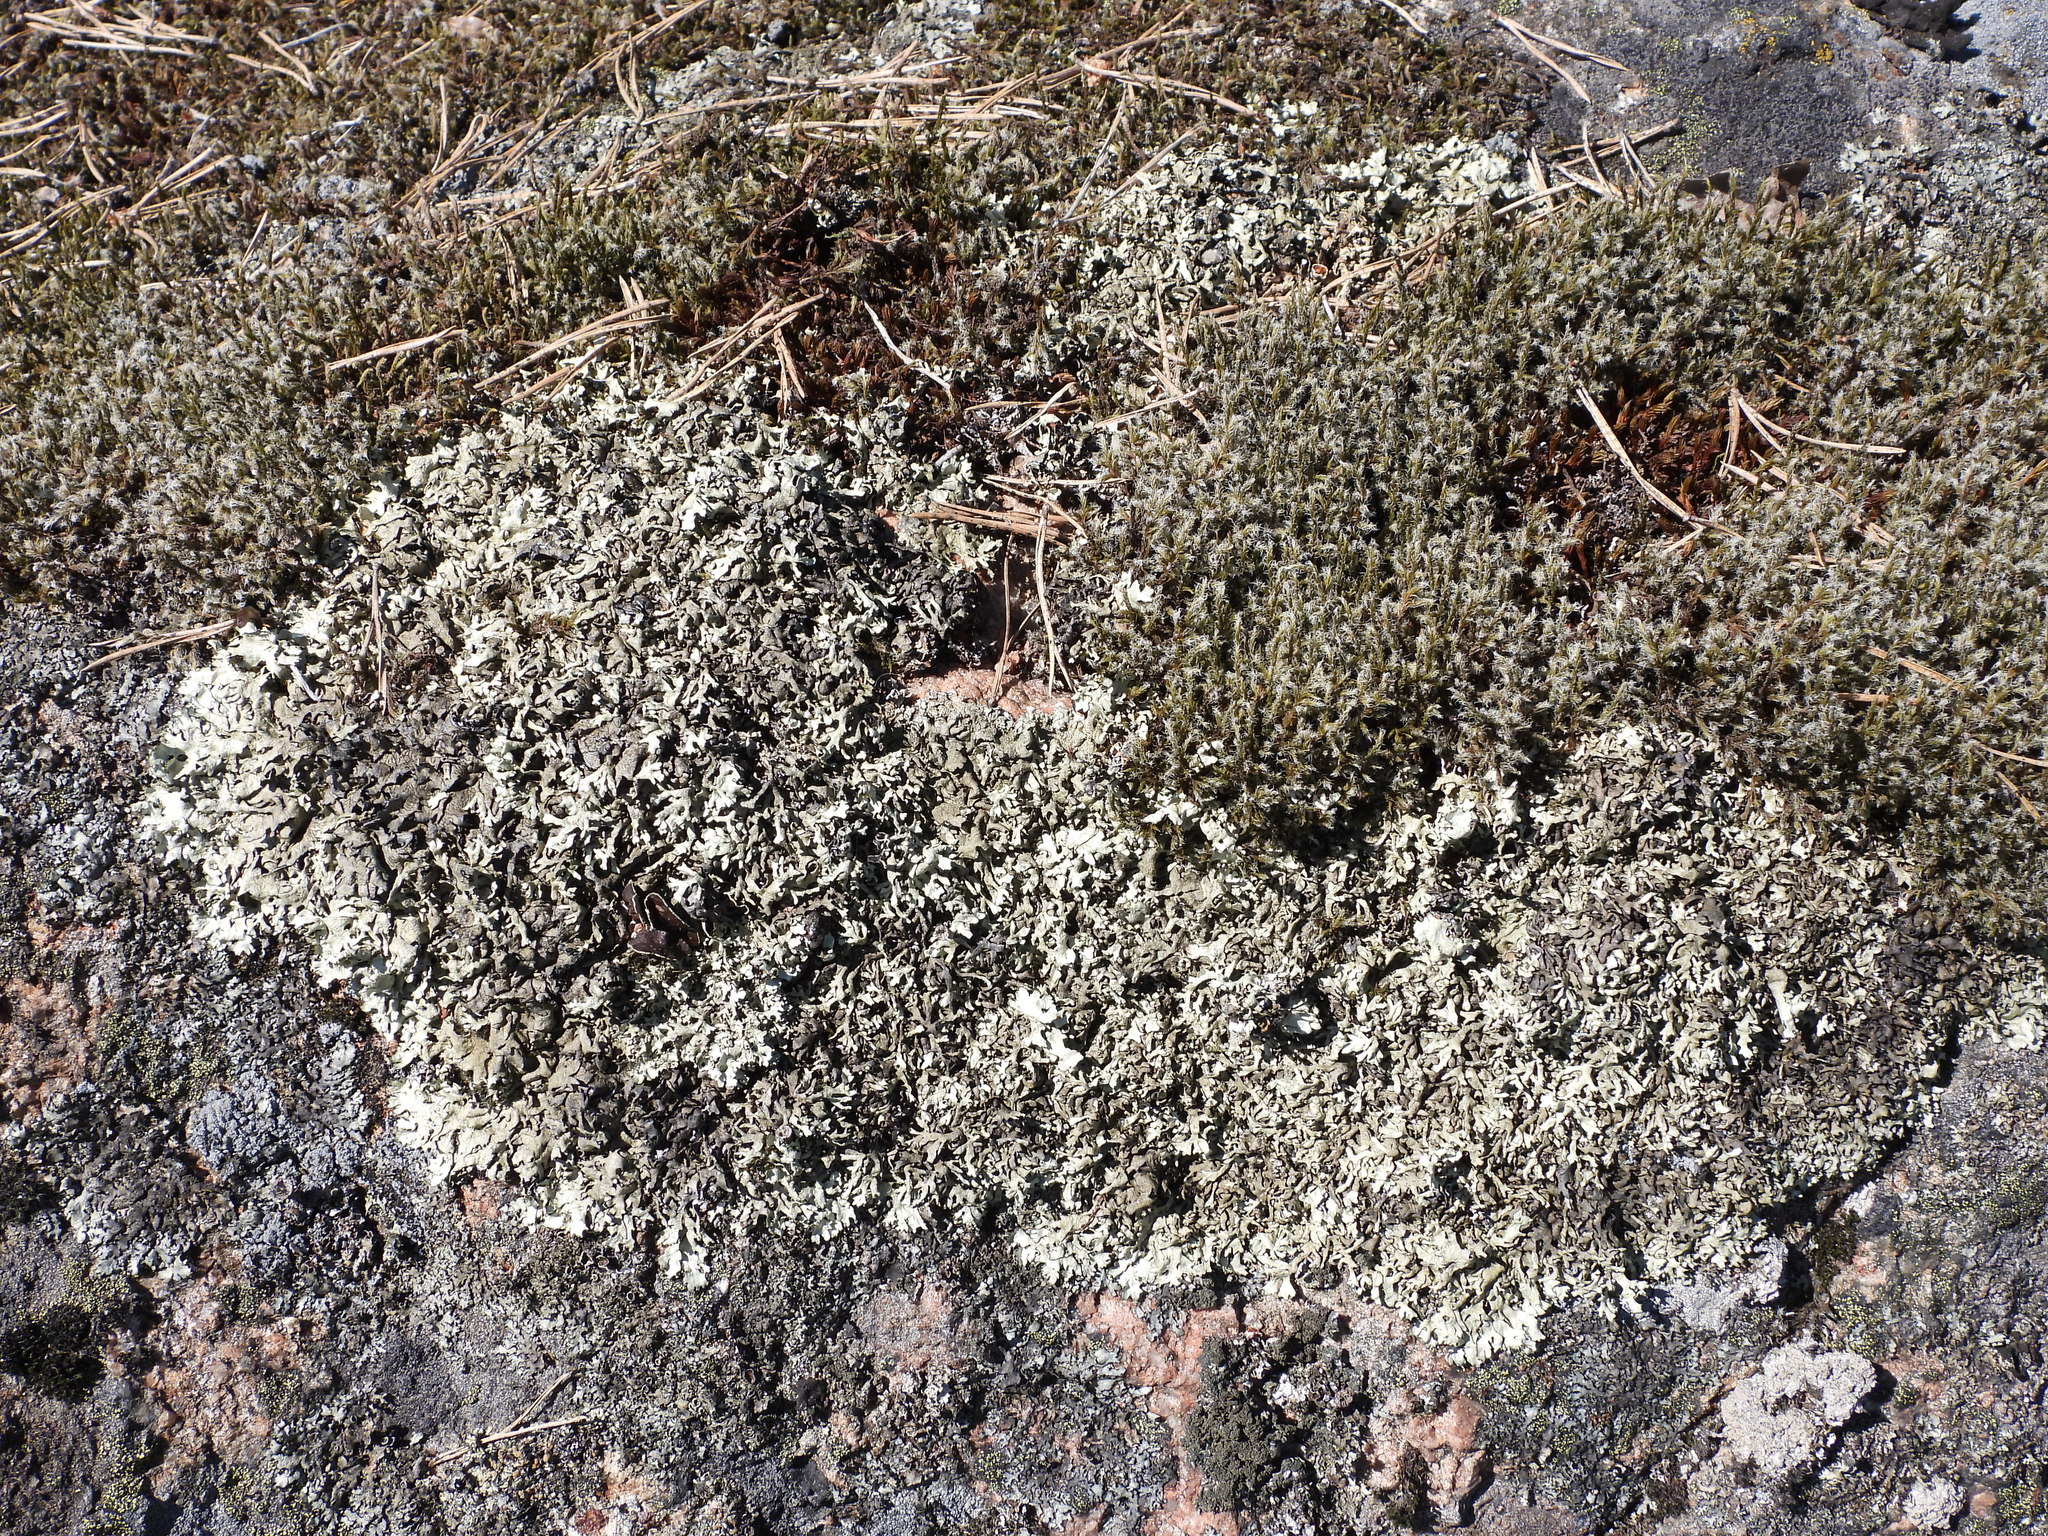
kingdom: Fungi
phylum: Ascomycota
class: Lecanoromycetes
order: Lecanorales
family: Parmeliaceae
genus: Xanthoparmelia
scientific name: Xanthoparmelia stenophylla
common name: Shingled rock shield
